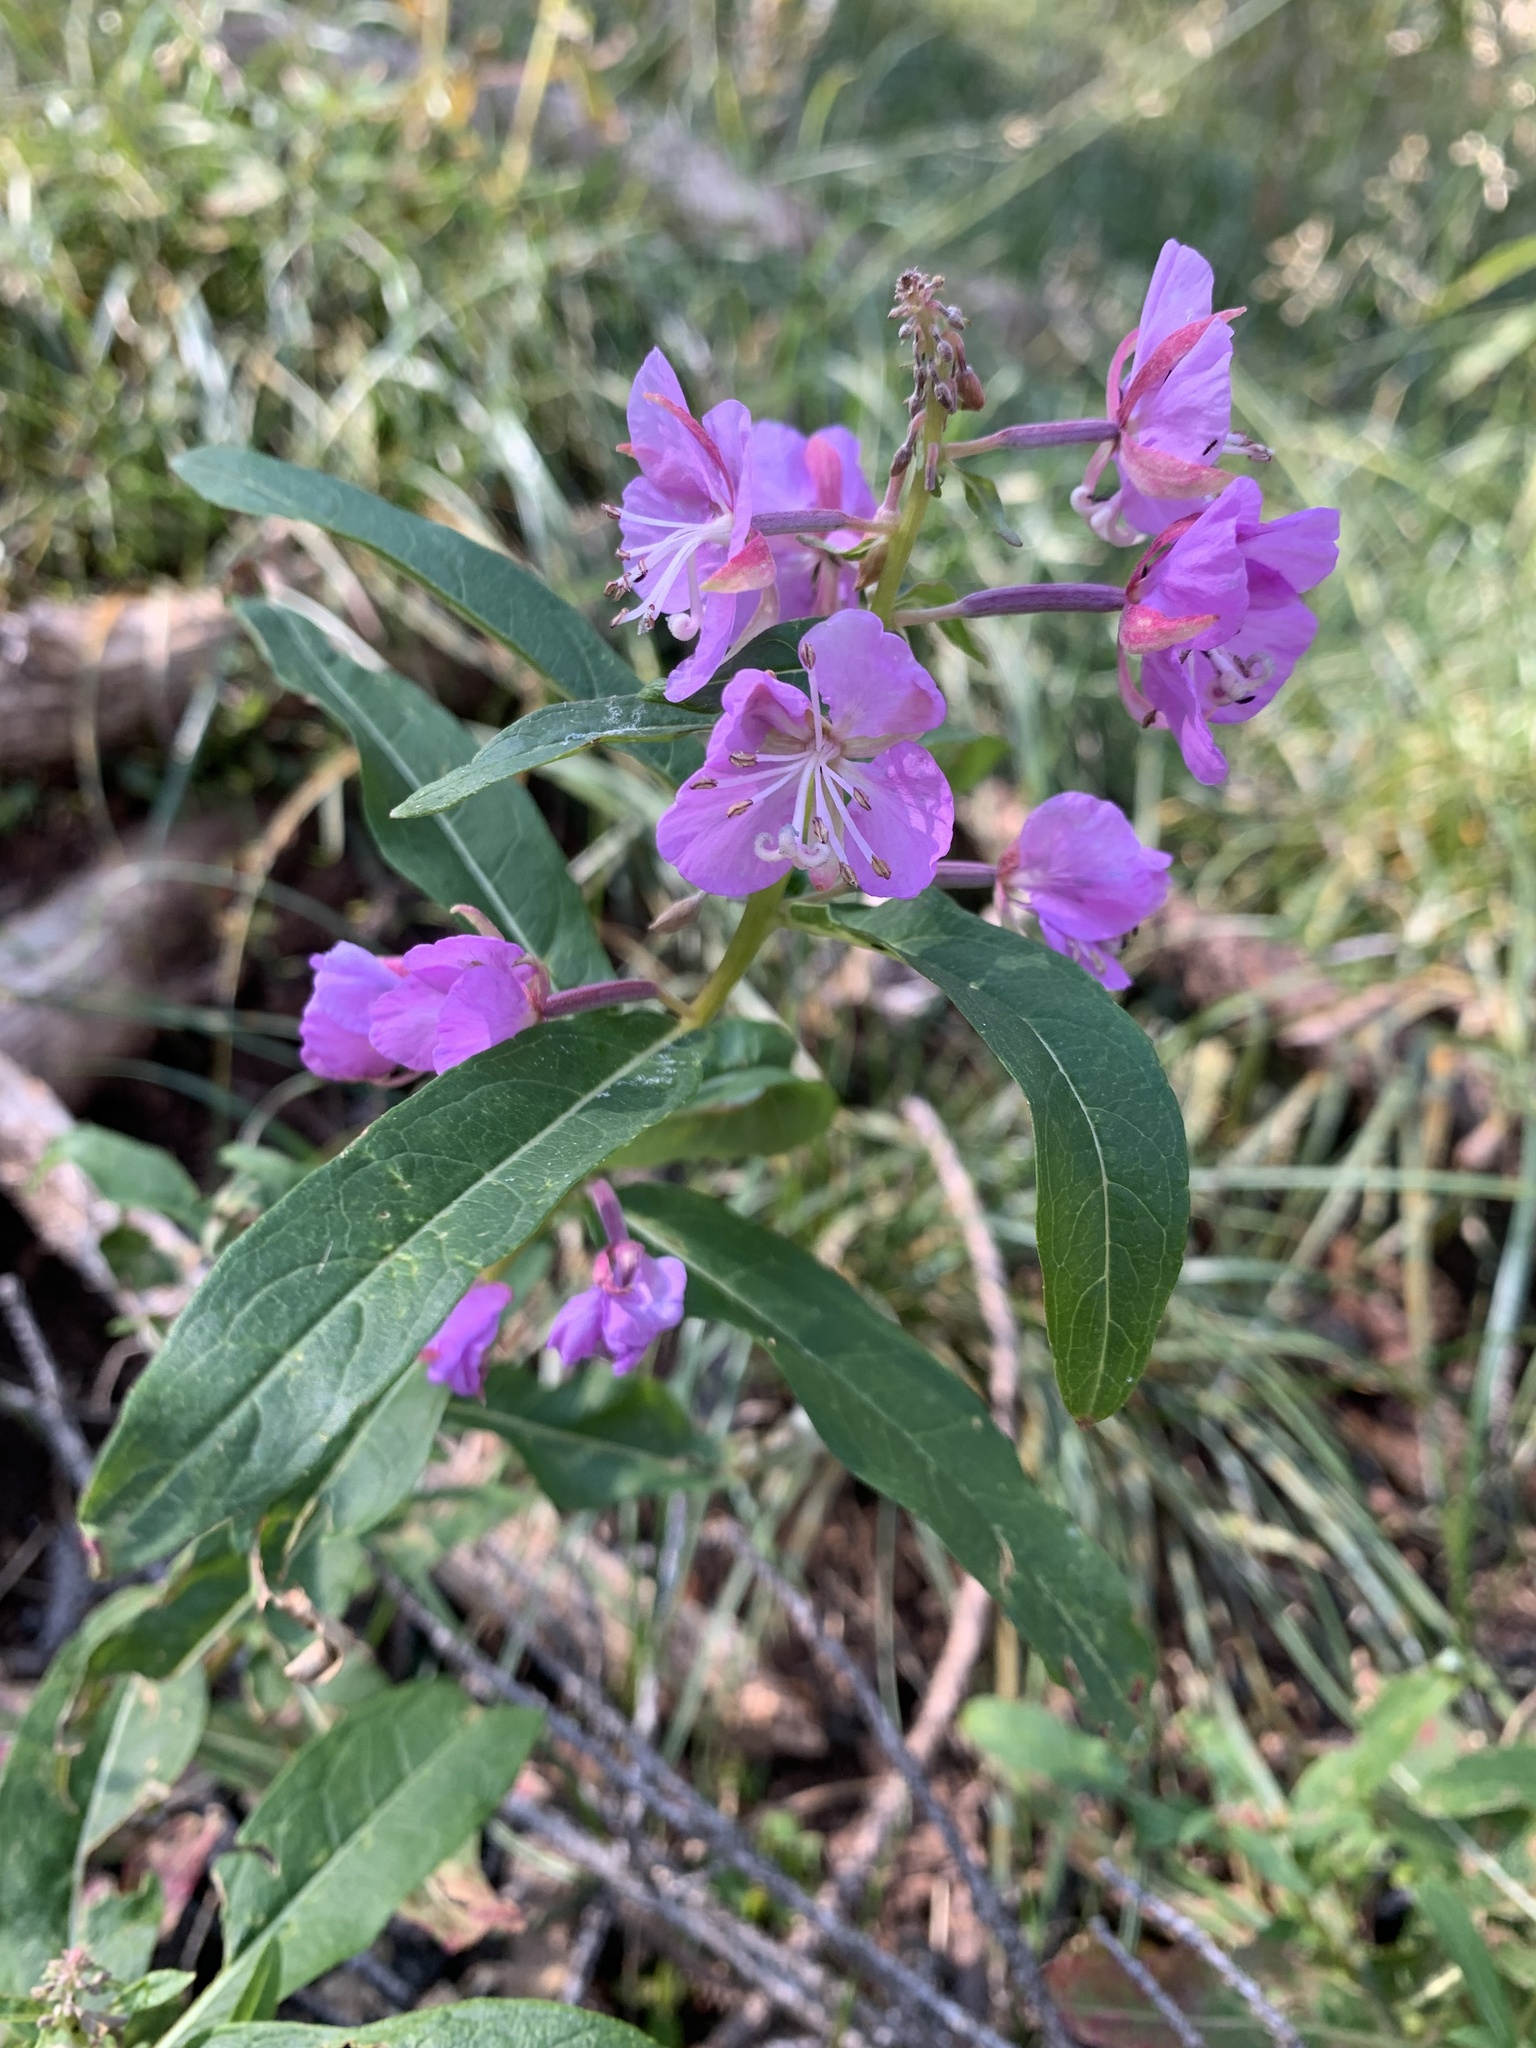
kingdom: Plantae
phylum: Tracheophyta
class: Magnoliopsida
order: Myrtales
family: Onagraceae
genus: Chamaenerion
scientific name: Chamaenerion angustifolium
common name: Fireweed
